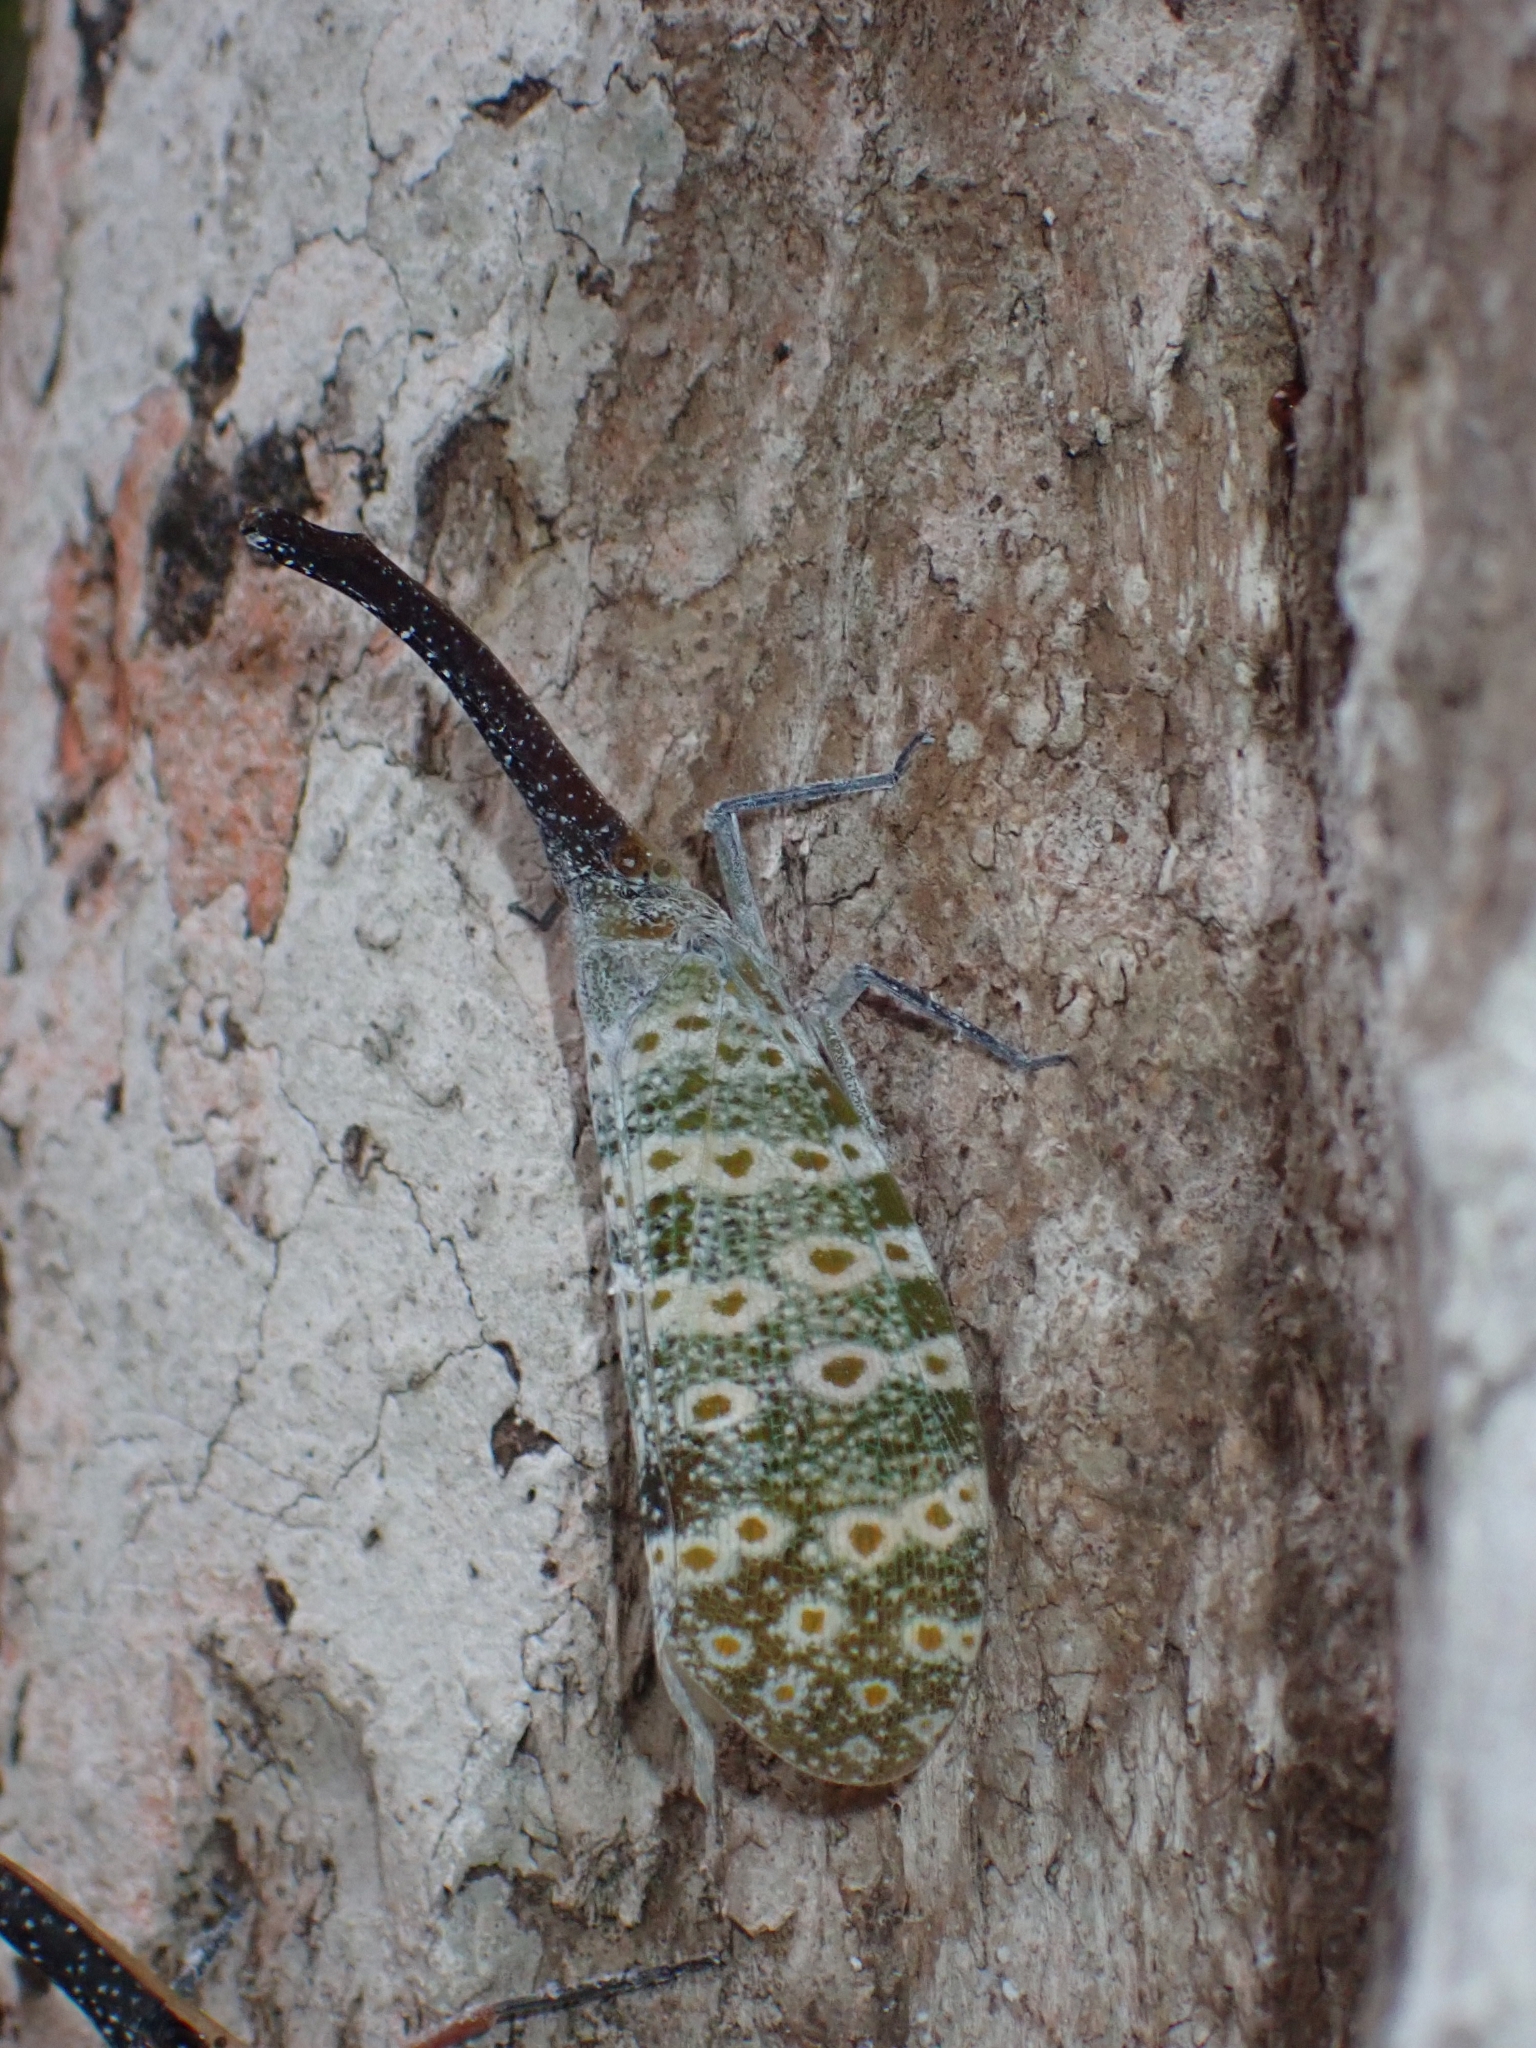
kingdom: Animalia
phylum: Arthropoda
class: Insecta
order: Hemiptera
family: Fulgoridae
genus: Pyrops
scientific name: Pyrops oculatus
